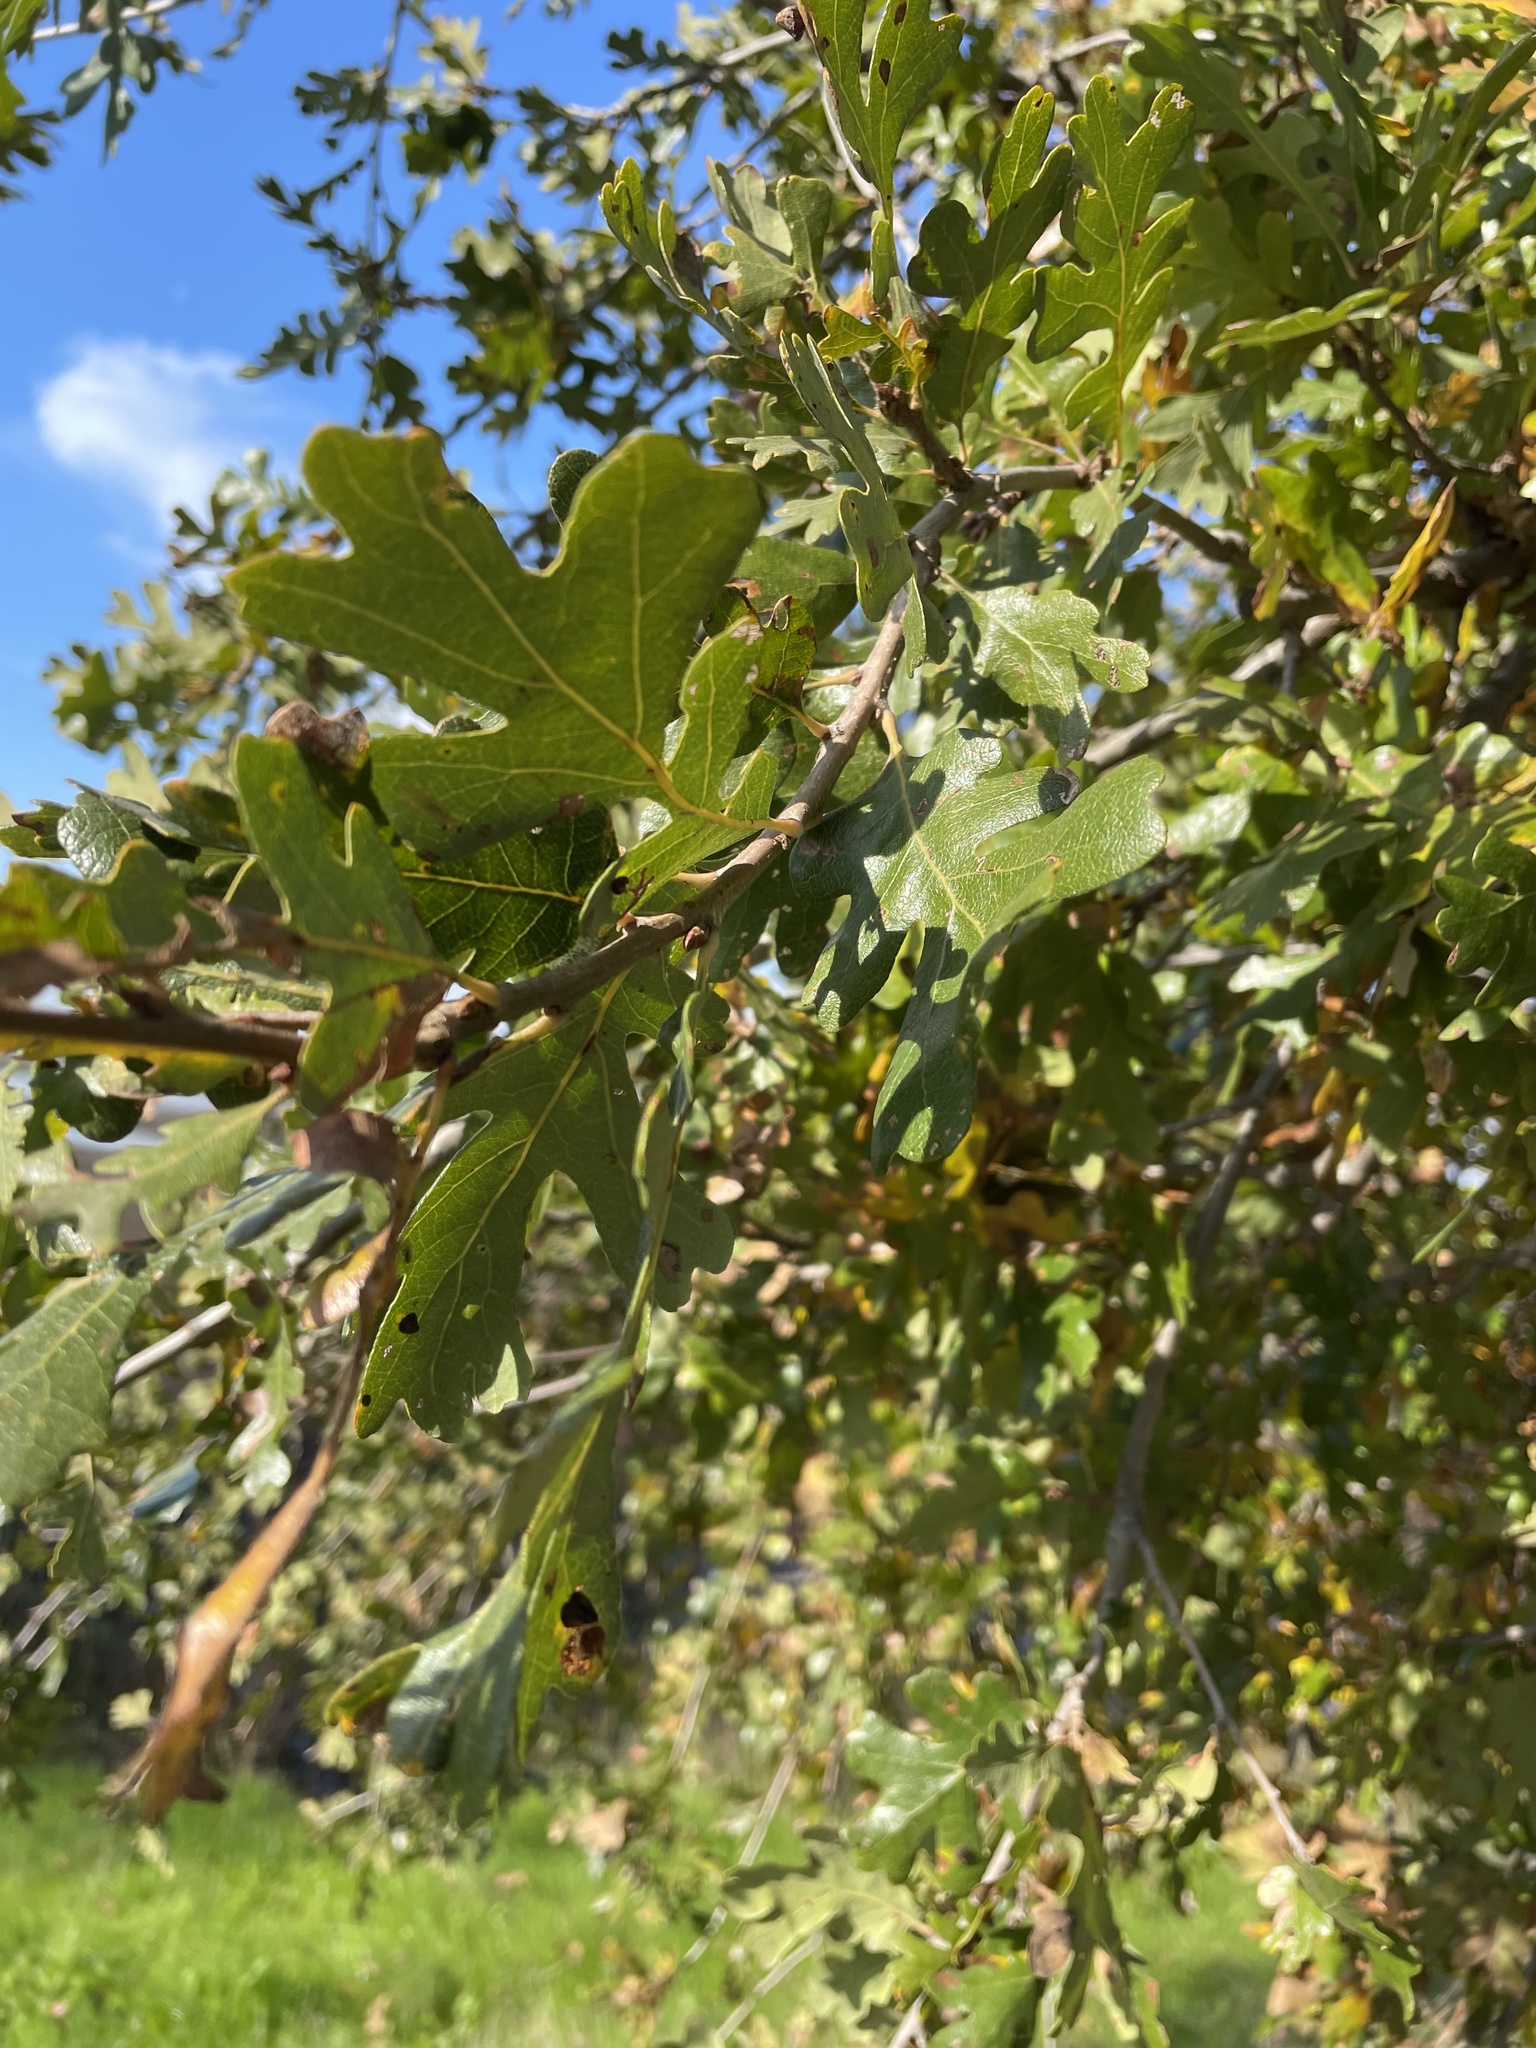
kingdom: Plantae
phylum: Tracheophyta
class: Magnoliopsida
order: Fagales
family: Fagaceae
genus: Quercus
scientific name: Quercus lobata
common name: Valley oak
